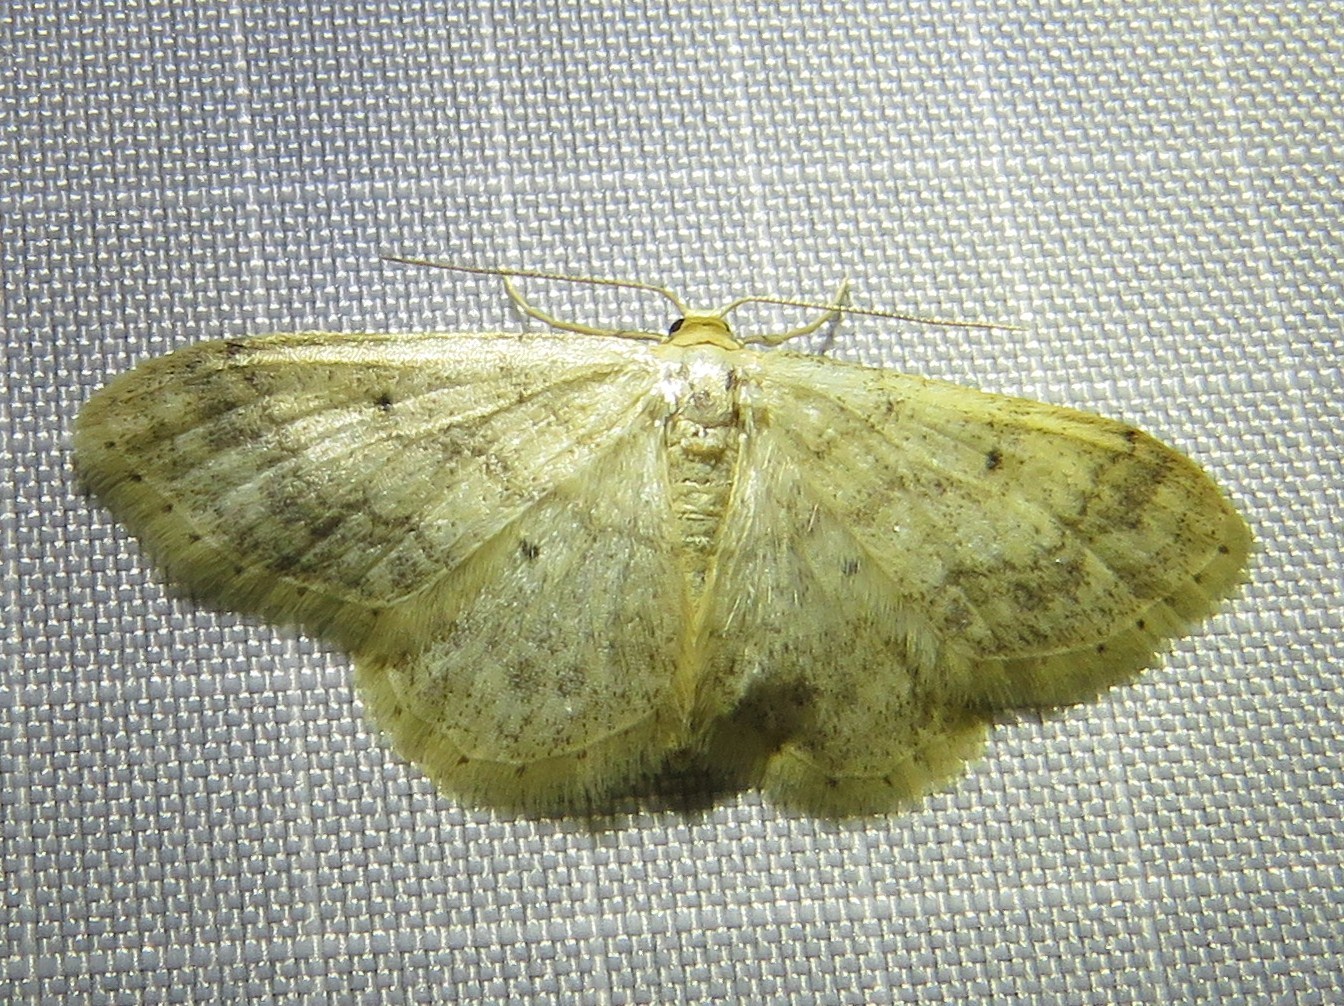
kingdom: Animalia
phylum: Arthropoda
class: Insecta
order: Lepidoptera
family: Geometridae
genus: Idaea
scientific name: Idaea biselata
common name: Small fan-footed wave
